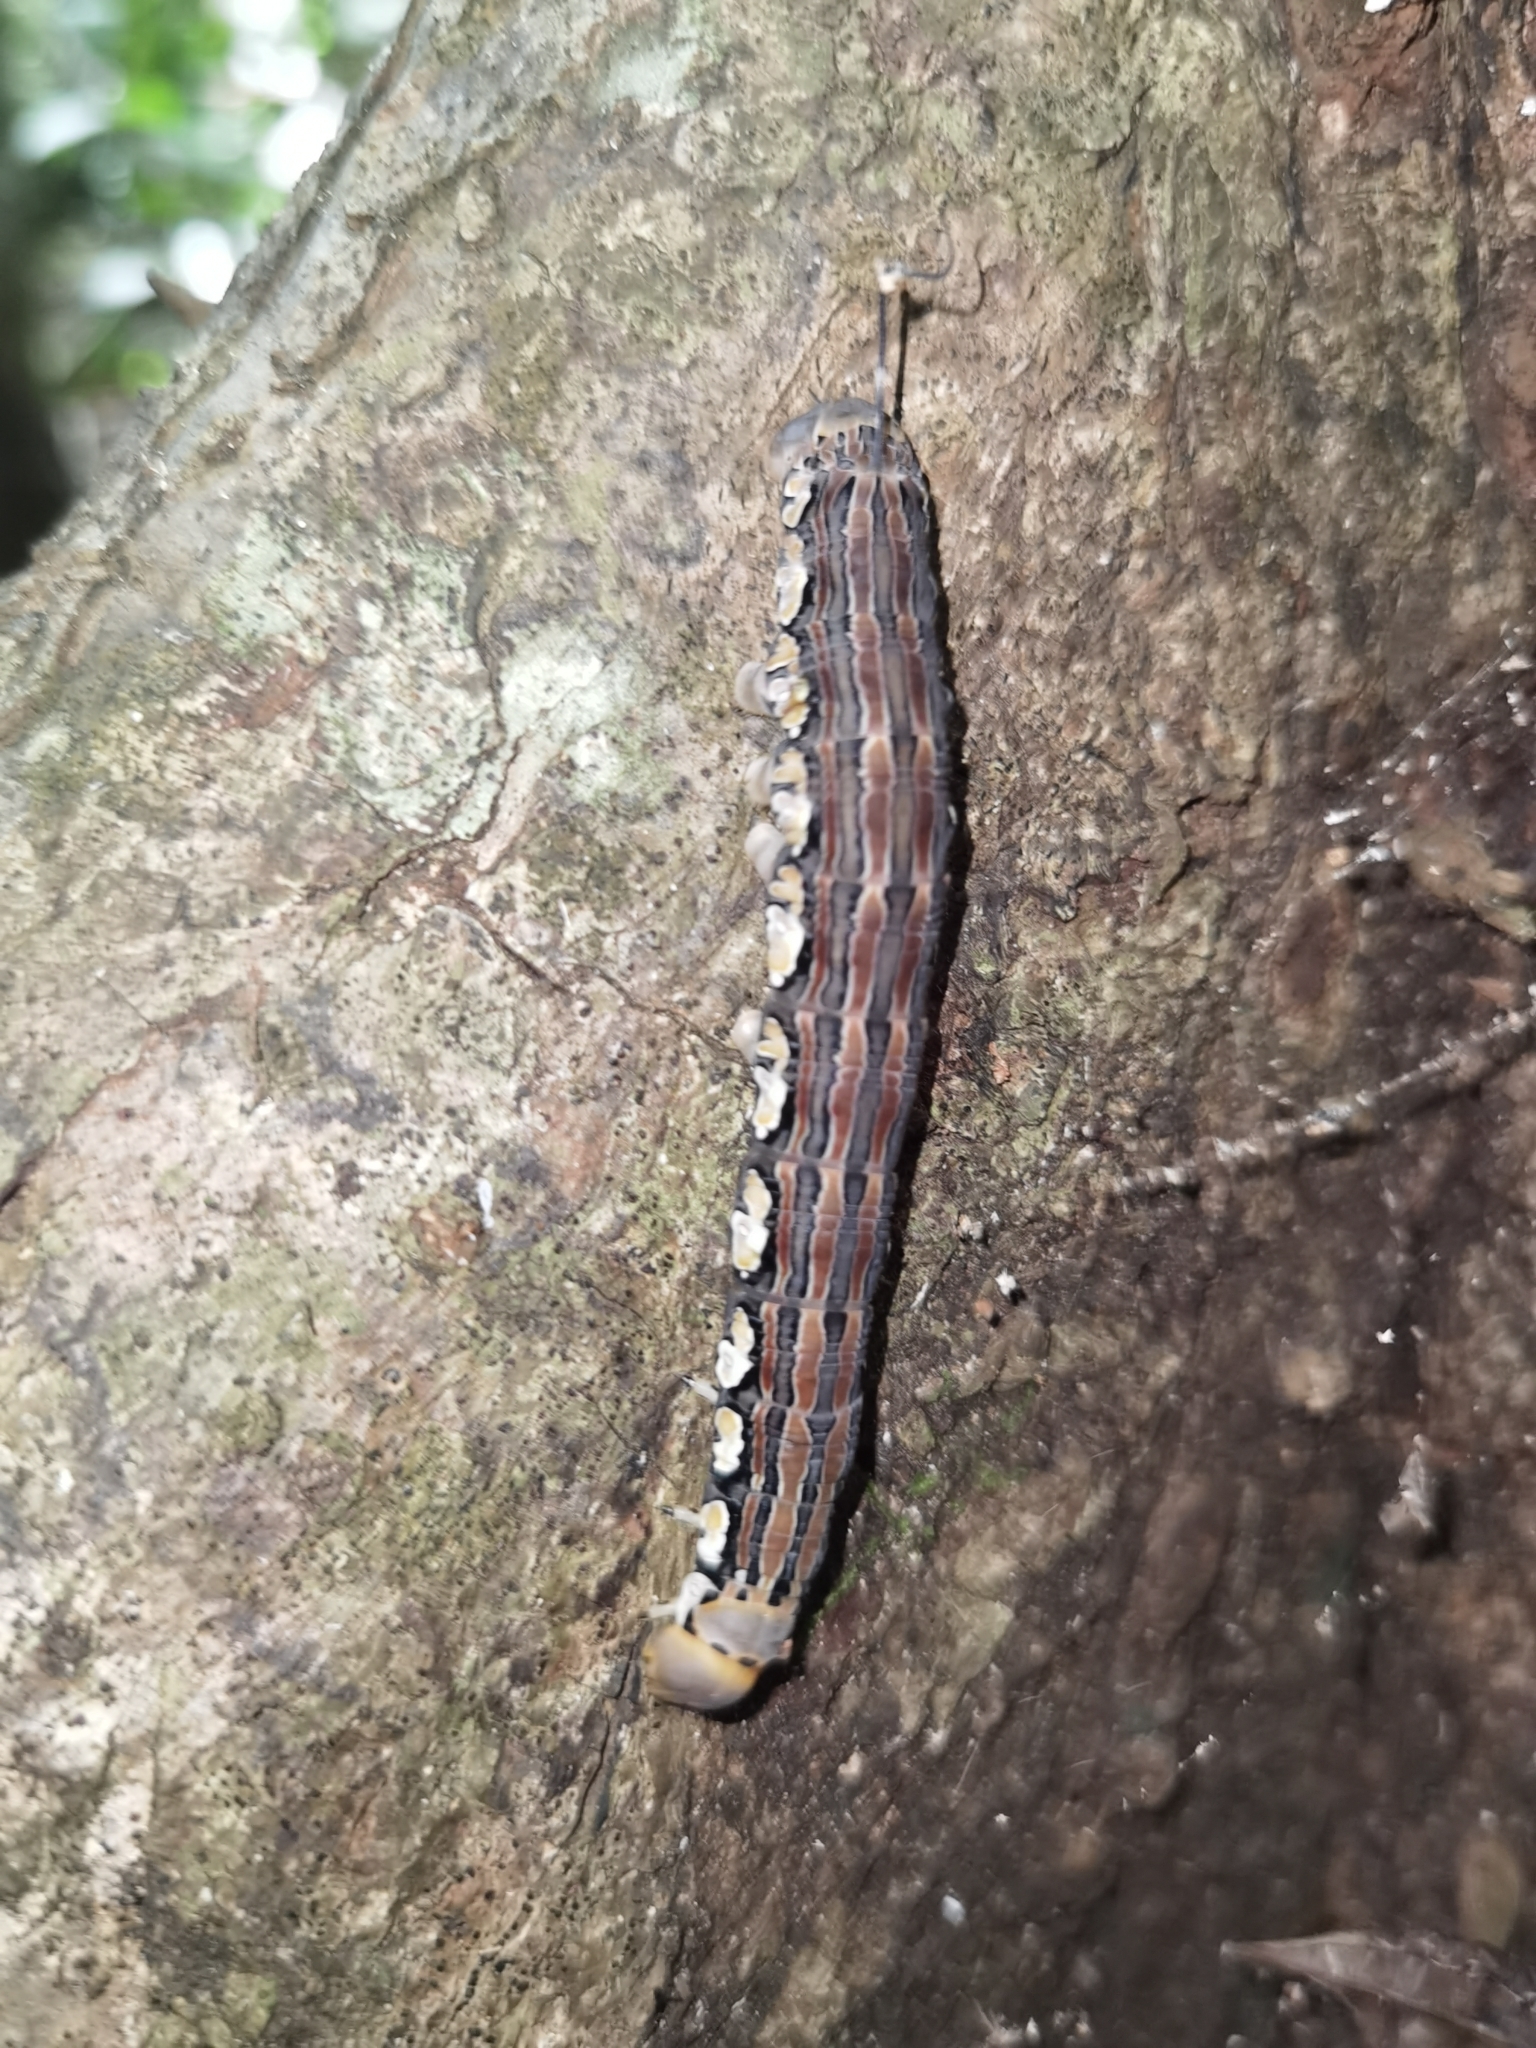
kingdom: Animalia
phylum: Arthropoda
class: Insecta
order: Lepidoptera
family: Sphingidae
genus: Isognathus
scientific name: Isognathus rimosa
